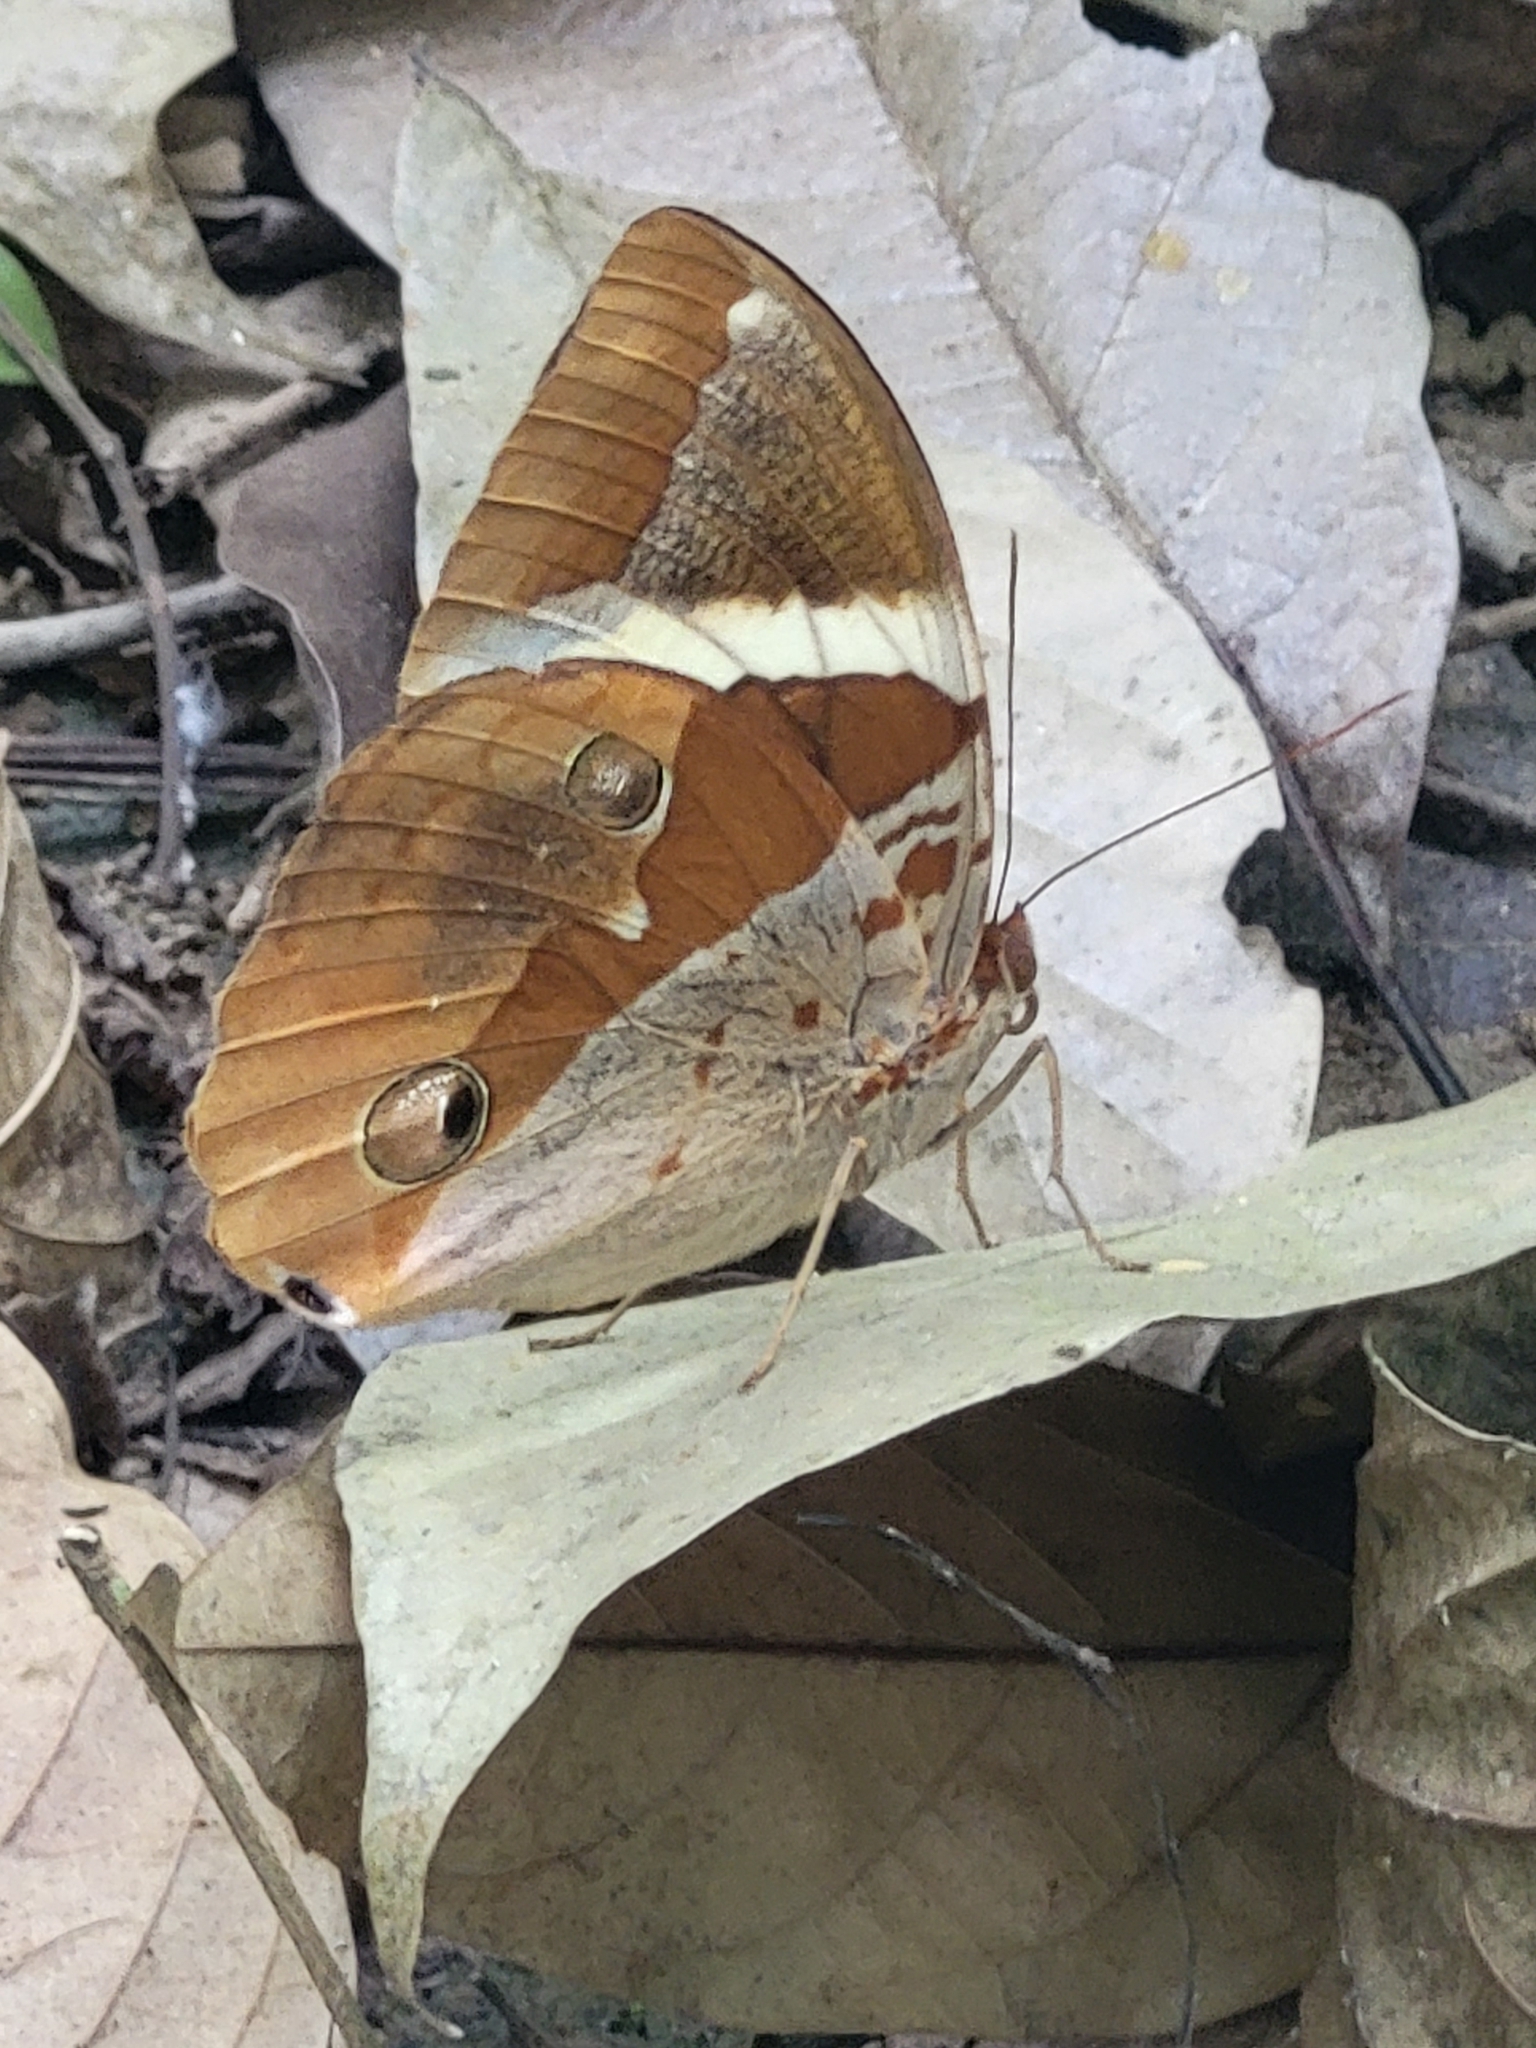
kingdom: Animalia
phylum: Arthropoda
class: Insecta
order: Lepidoptera
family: Nymphalidae
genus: Thauria
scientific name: Thauria lathy
